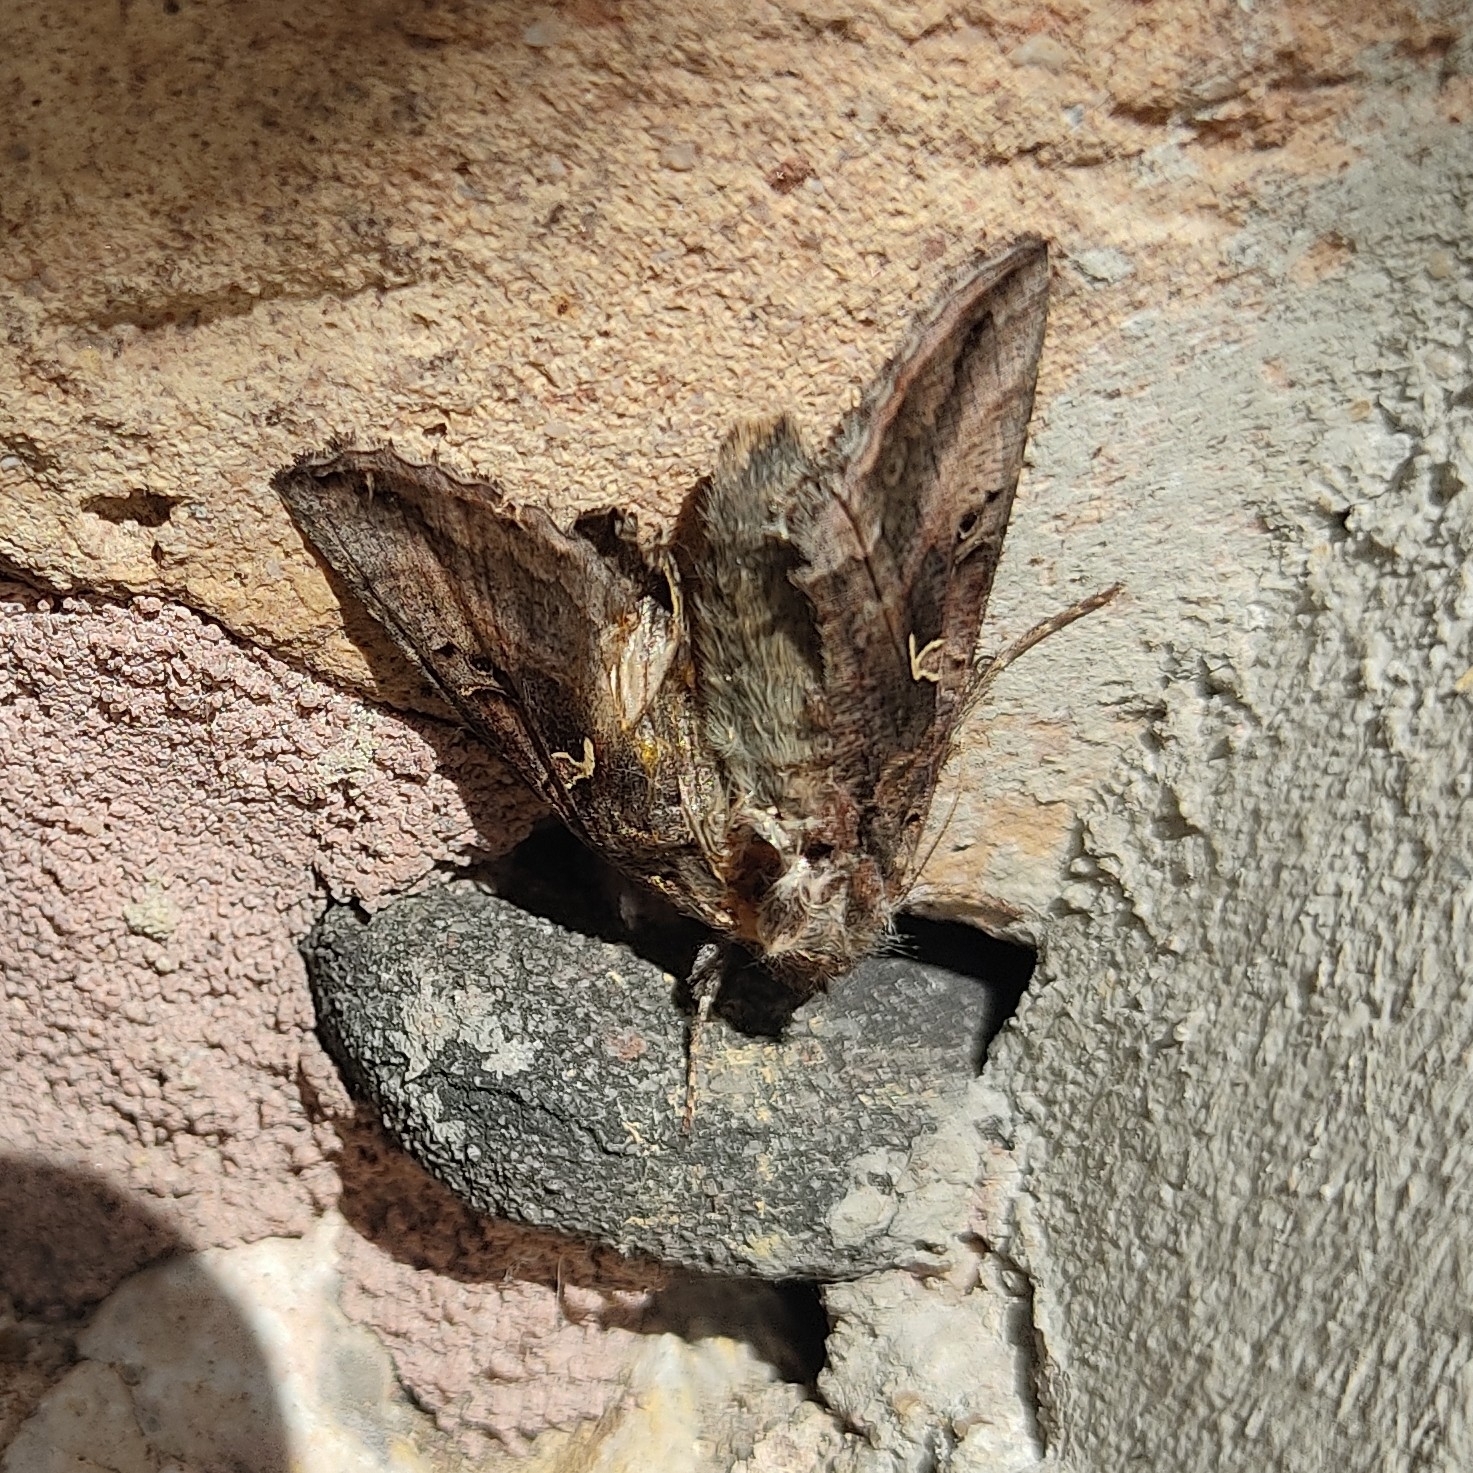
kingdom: Animalia
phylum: Arthropoda
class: Insecta
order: Lepidoptera
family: Noctuidae
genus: Autographa
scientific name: Autographa gamma
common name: Silver y
